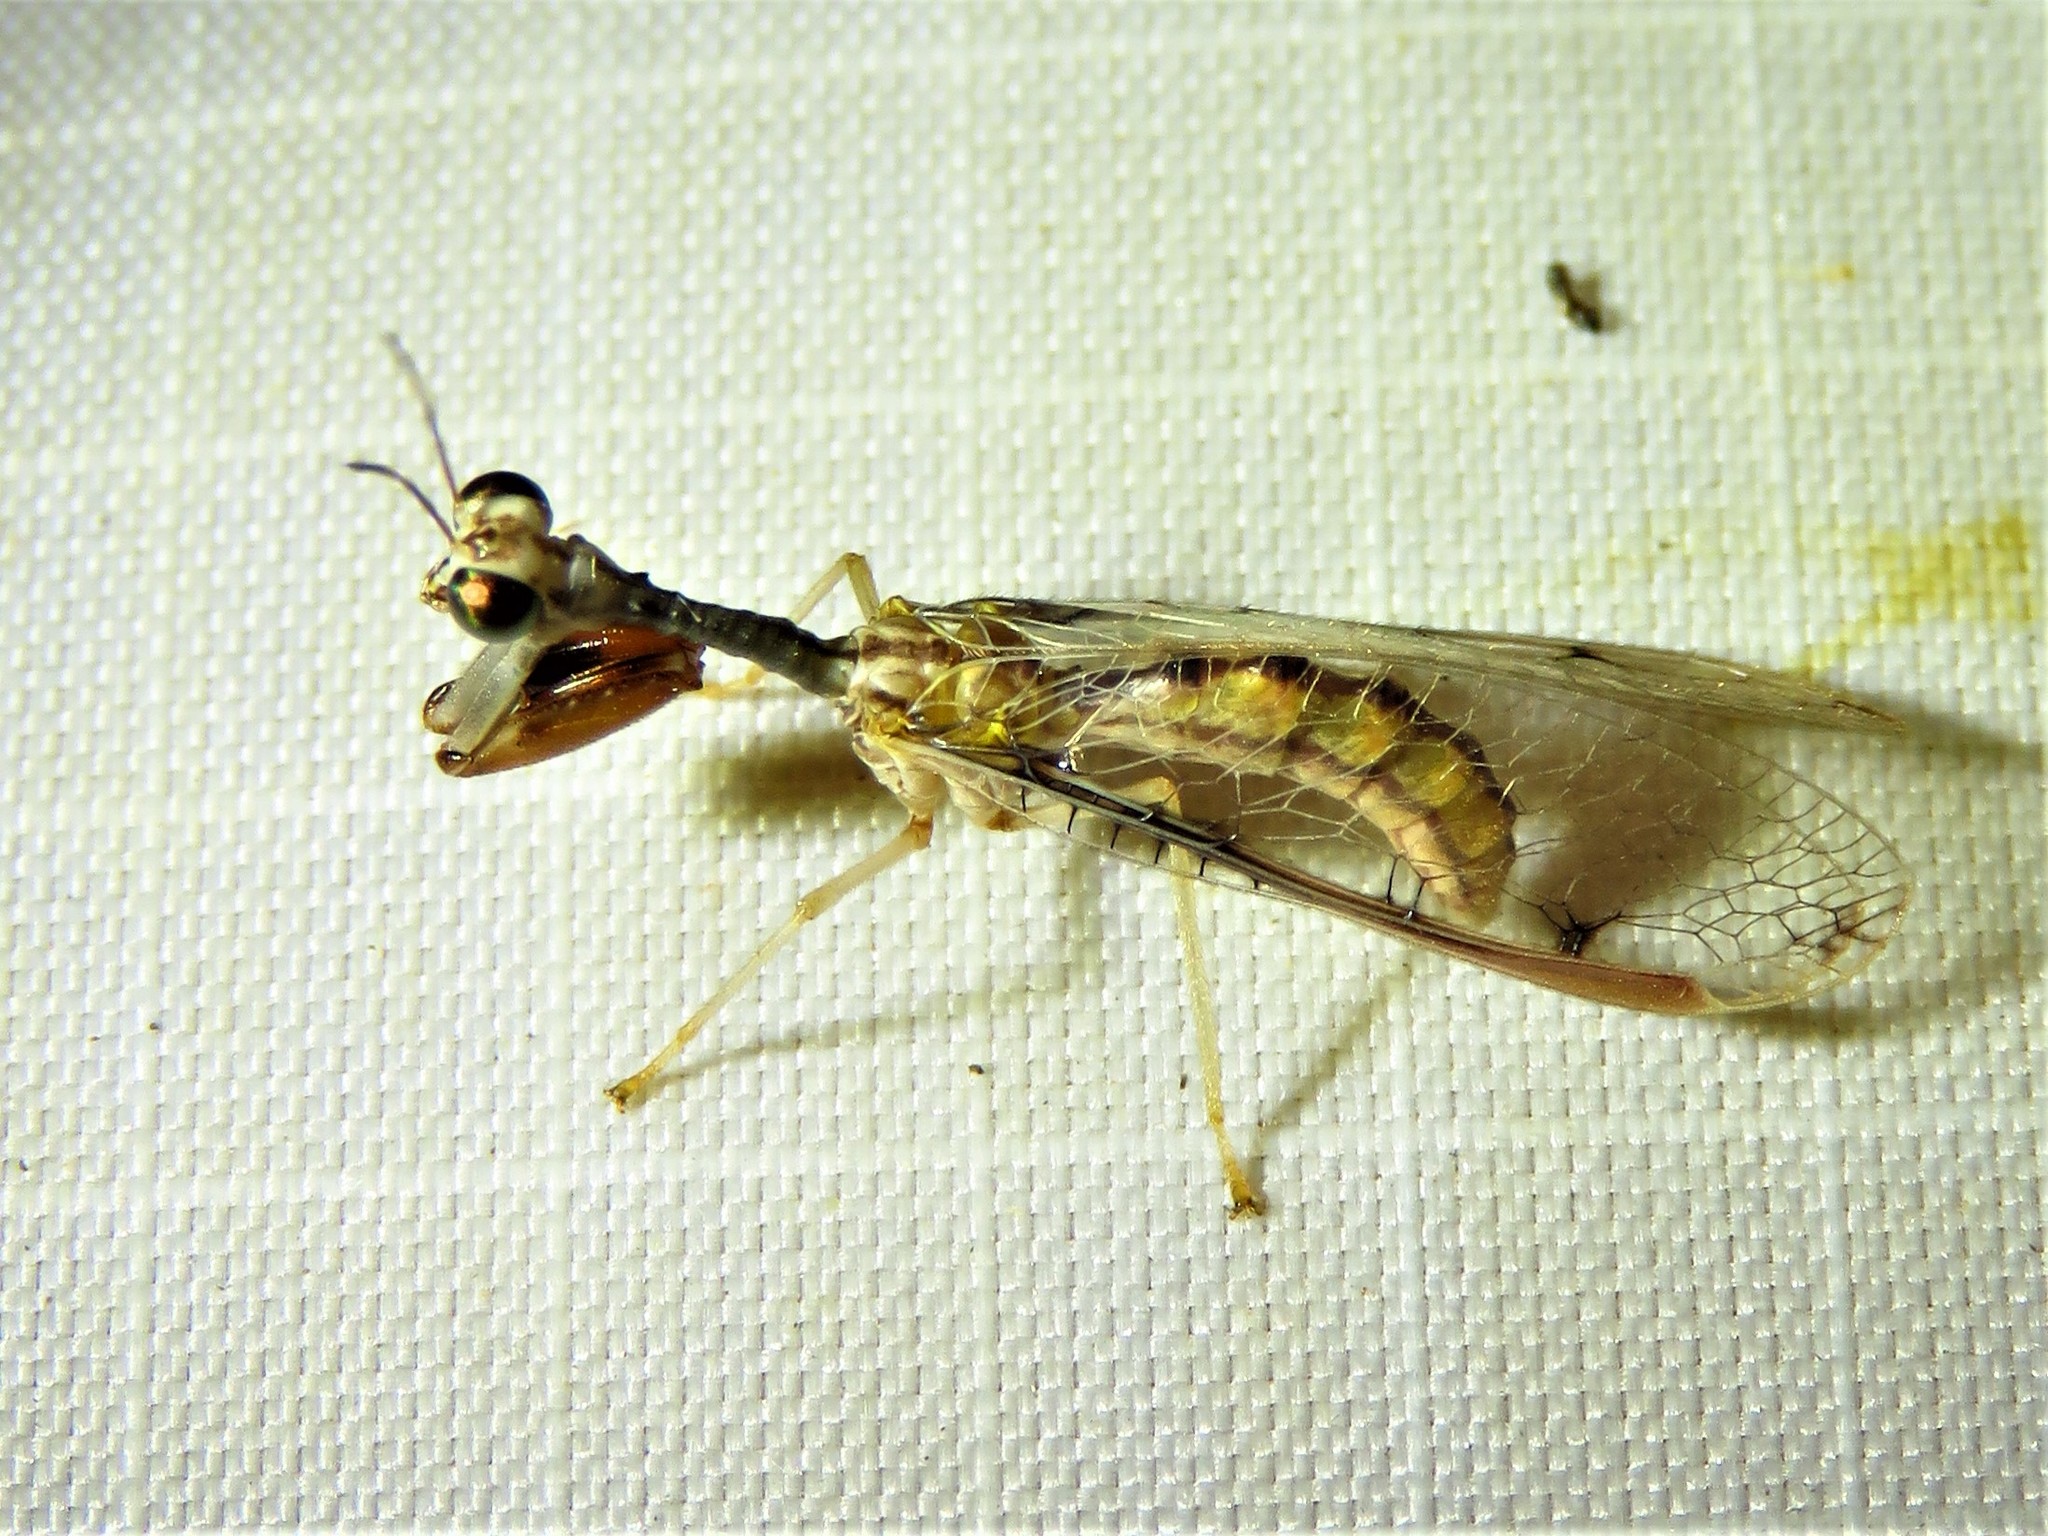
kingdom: Animalia
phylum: Arthropoda
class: Insecta
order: Neuroptera
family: Mantispidae
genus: Dicromantispa
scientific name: Dicromantispa interrupta
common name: Four-spotted mantidfly
